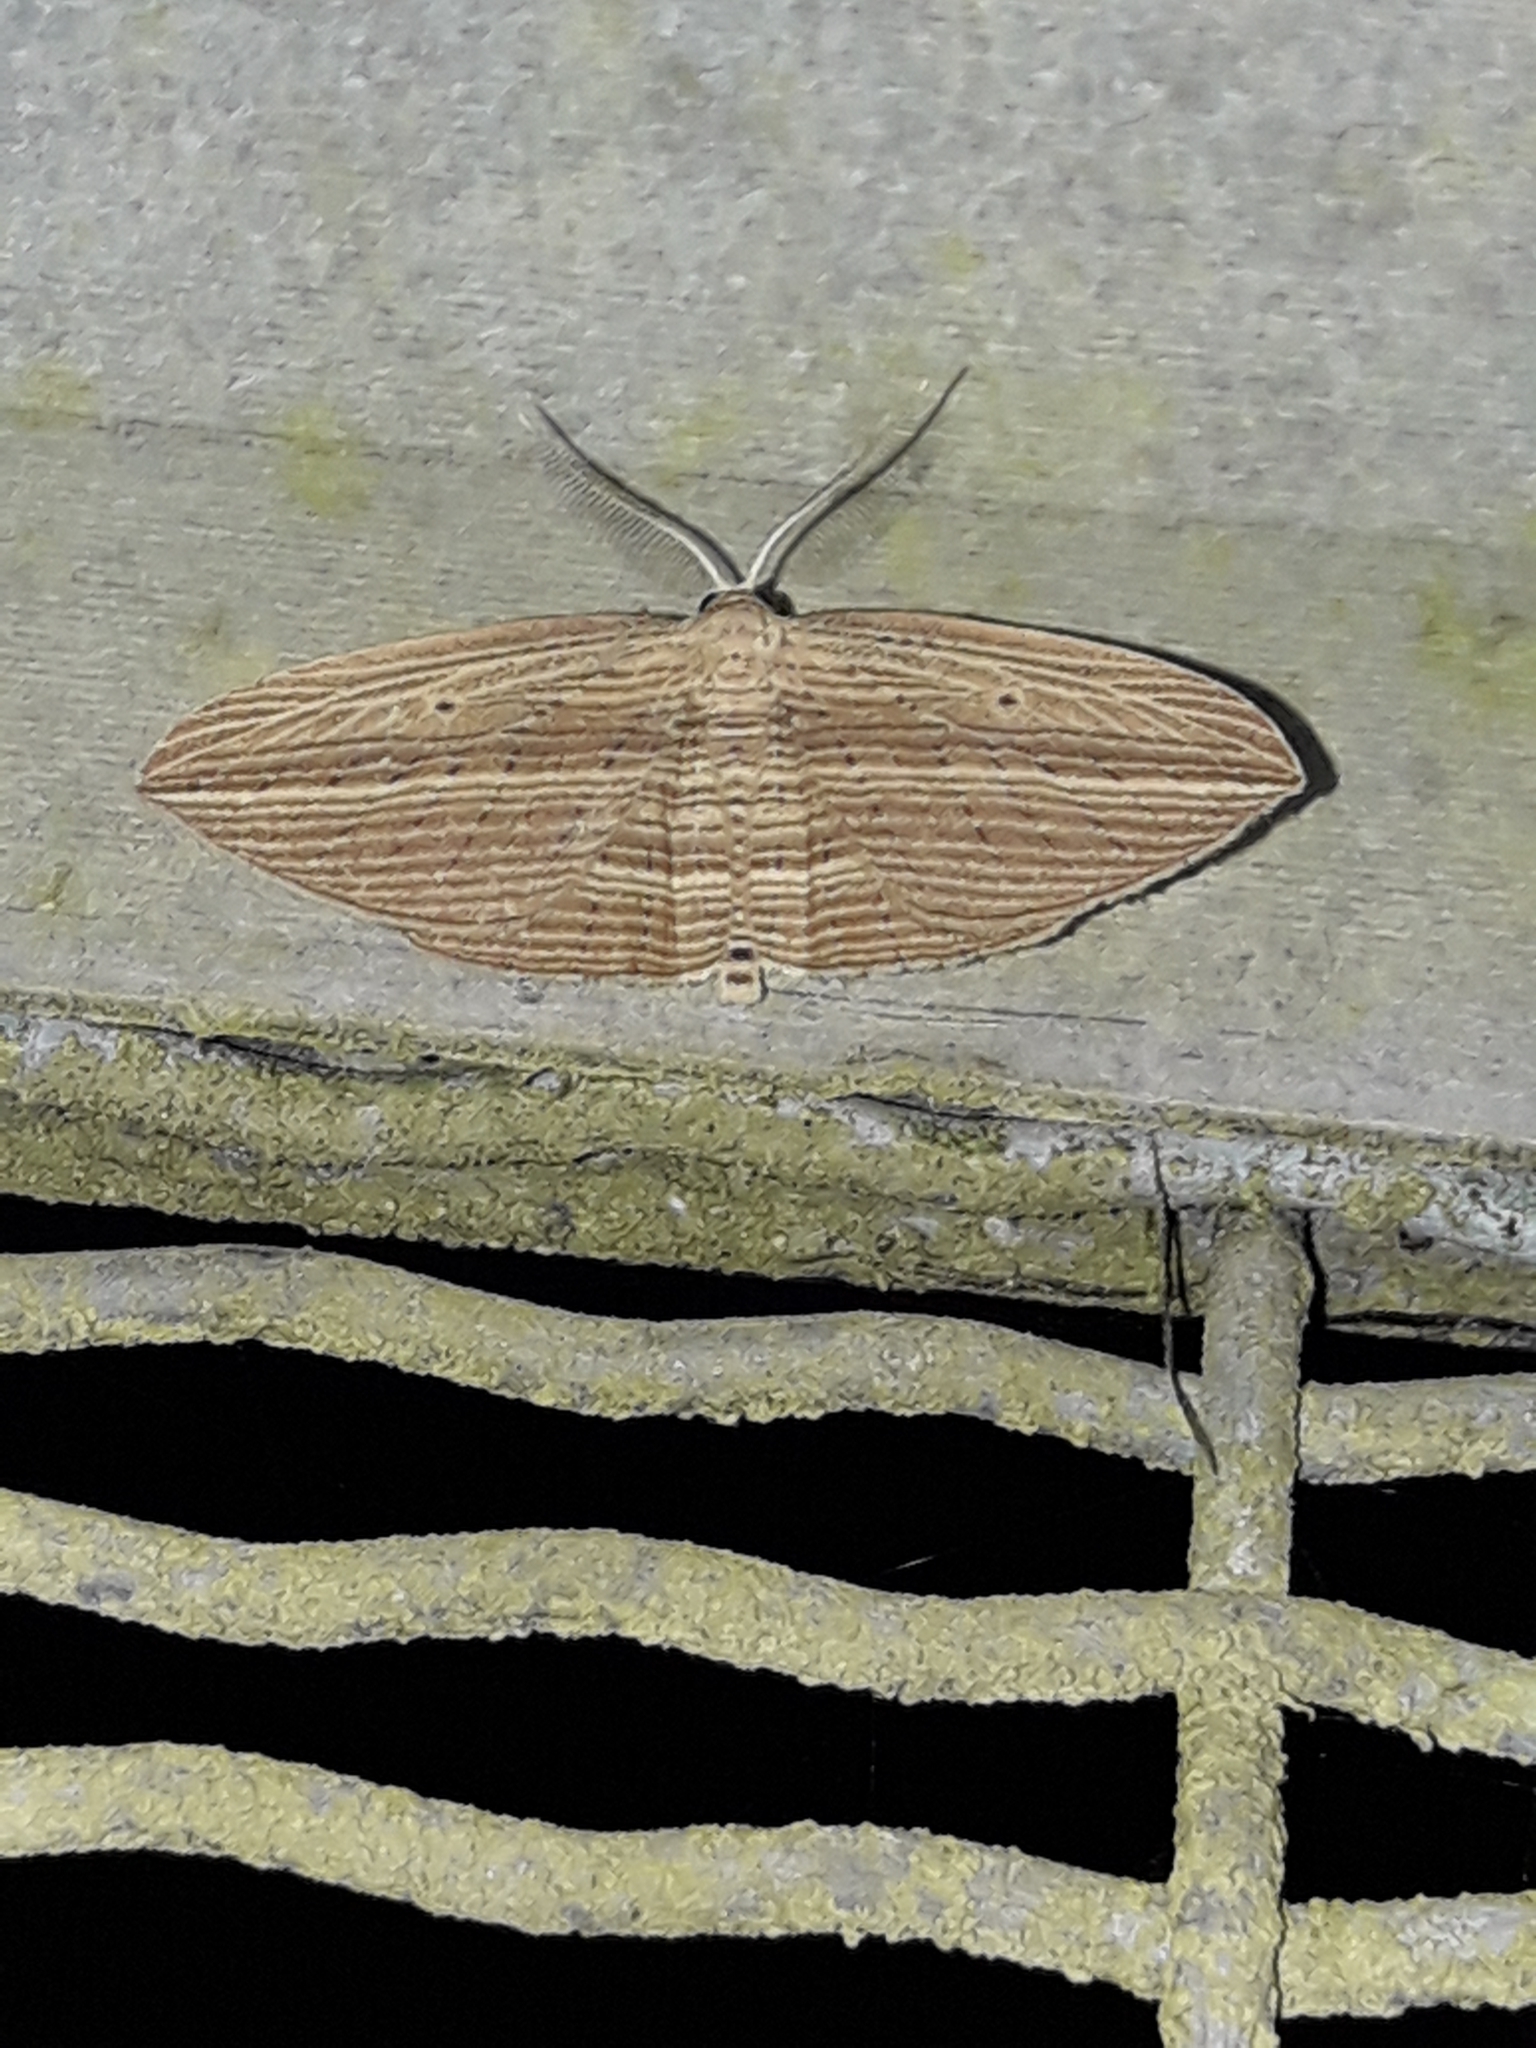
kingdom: Animalia
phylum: Arthropoda
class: Insecta
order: Lepidoptera
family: Geometridae
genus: Epiphryne
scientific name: Epiphryne verriculata
